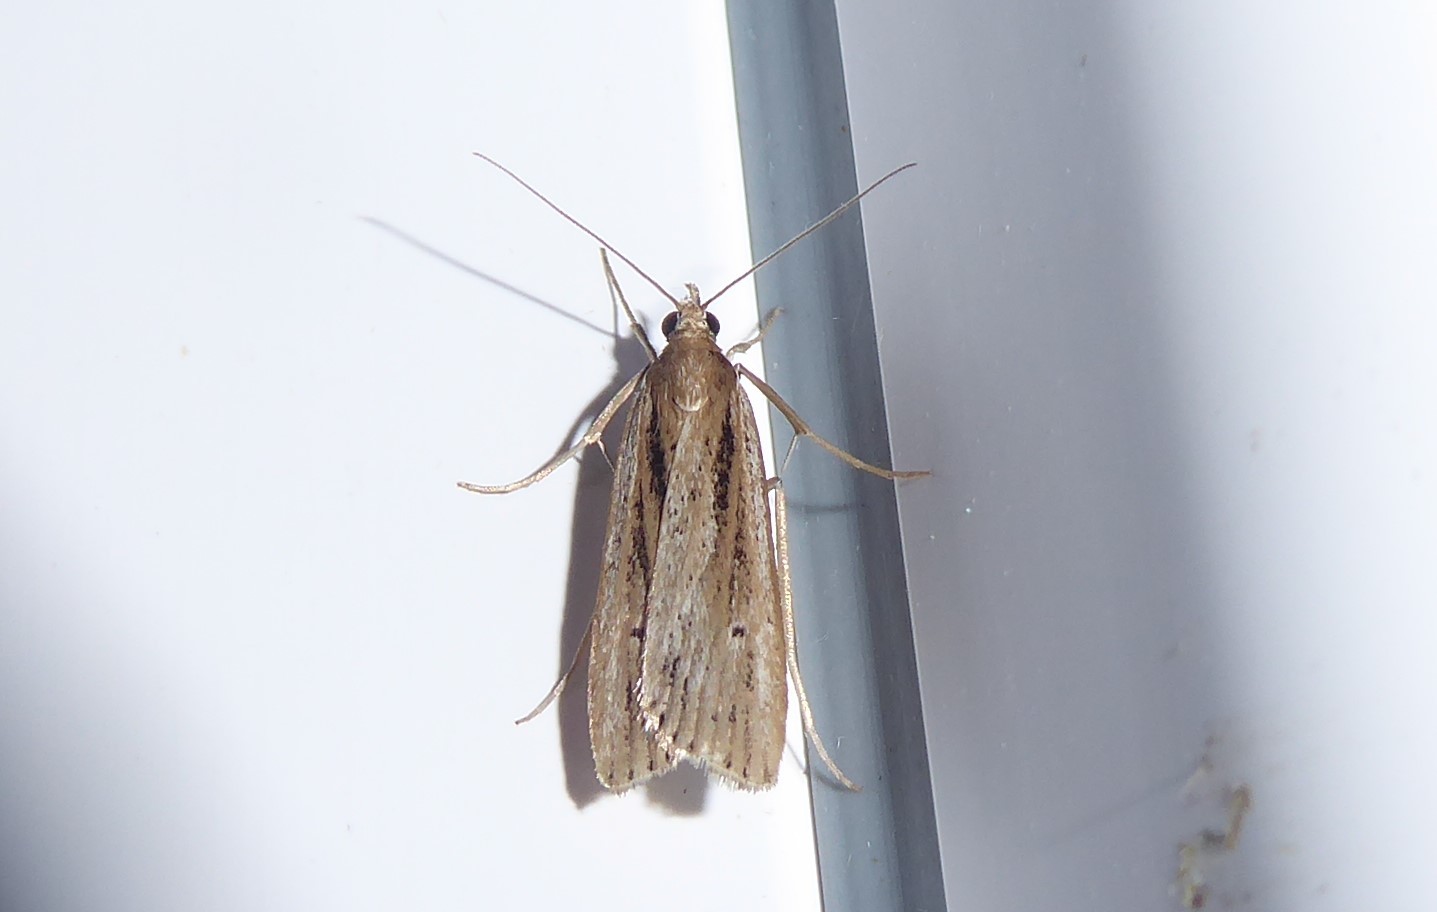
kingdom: Animalia
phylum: Arthropoda
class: Insecta
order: Lepidoptera
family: Crambidae
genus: Eudonia
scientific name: Eudonia sabulosella
